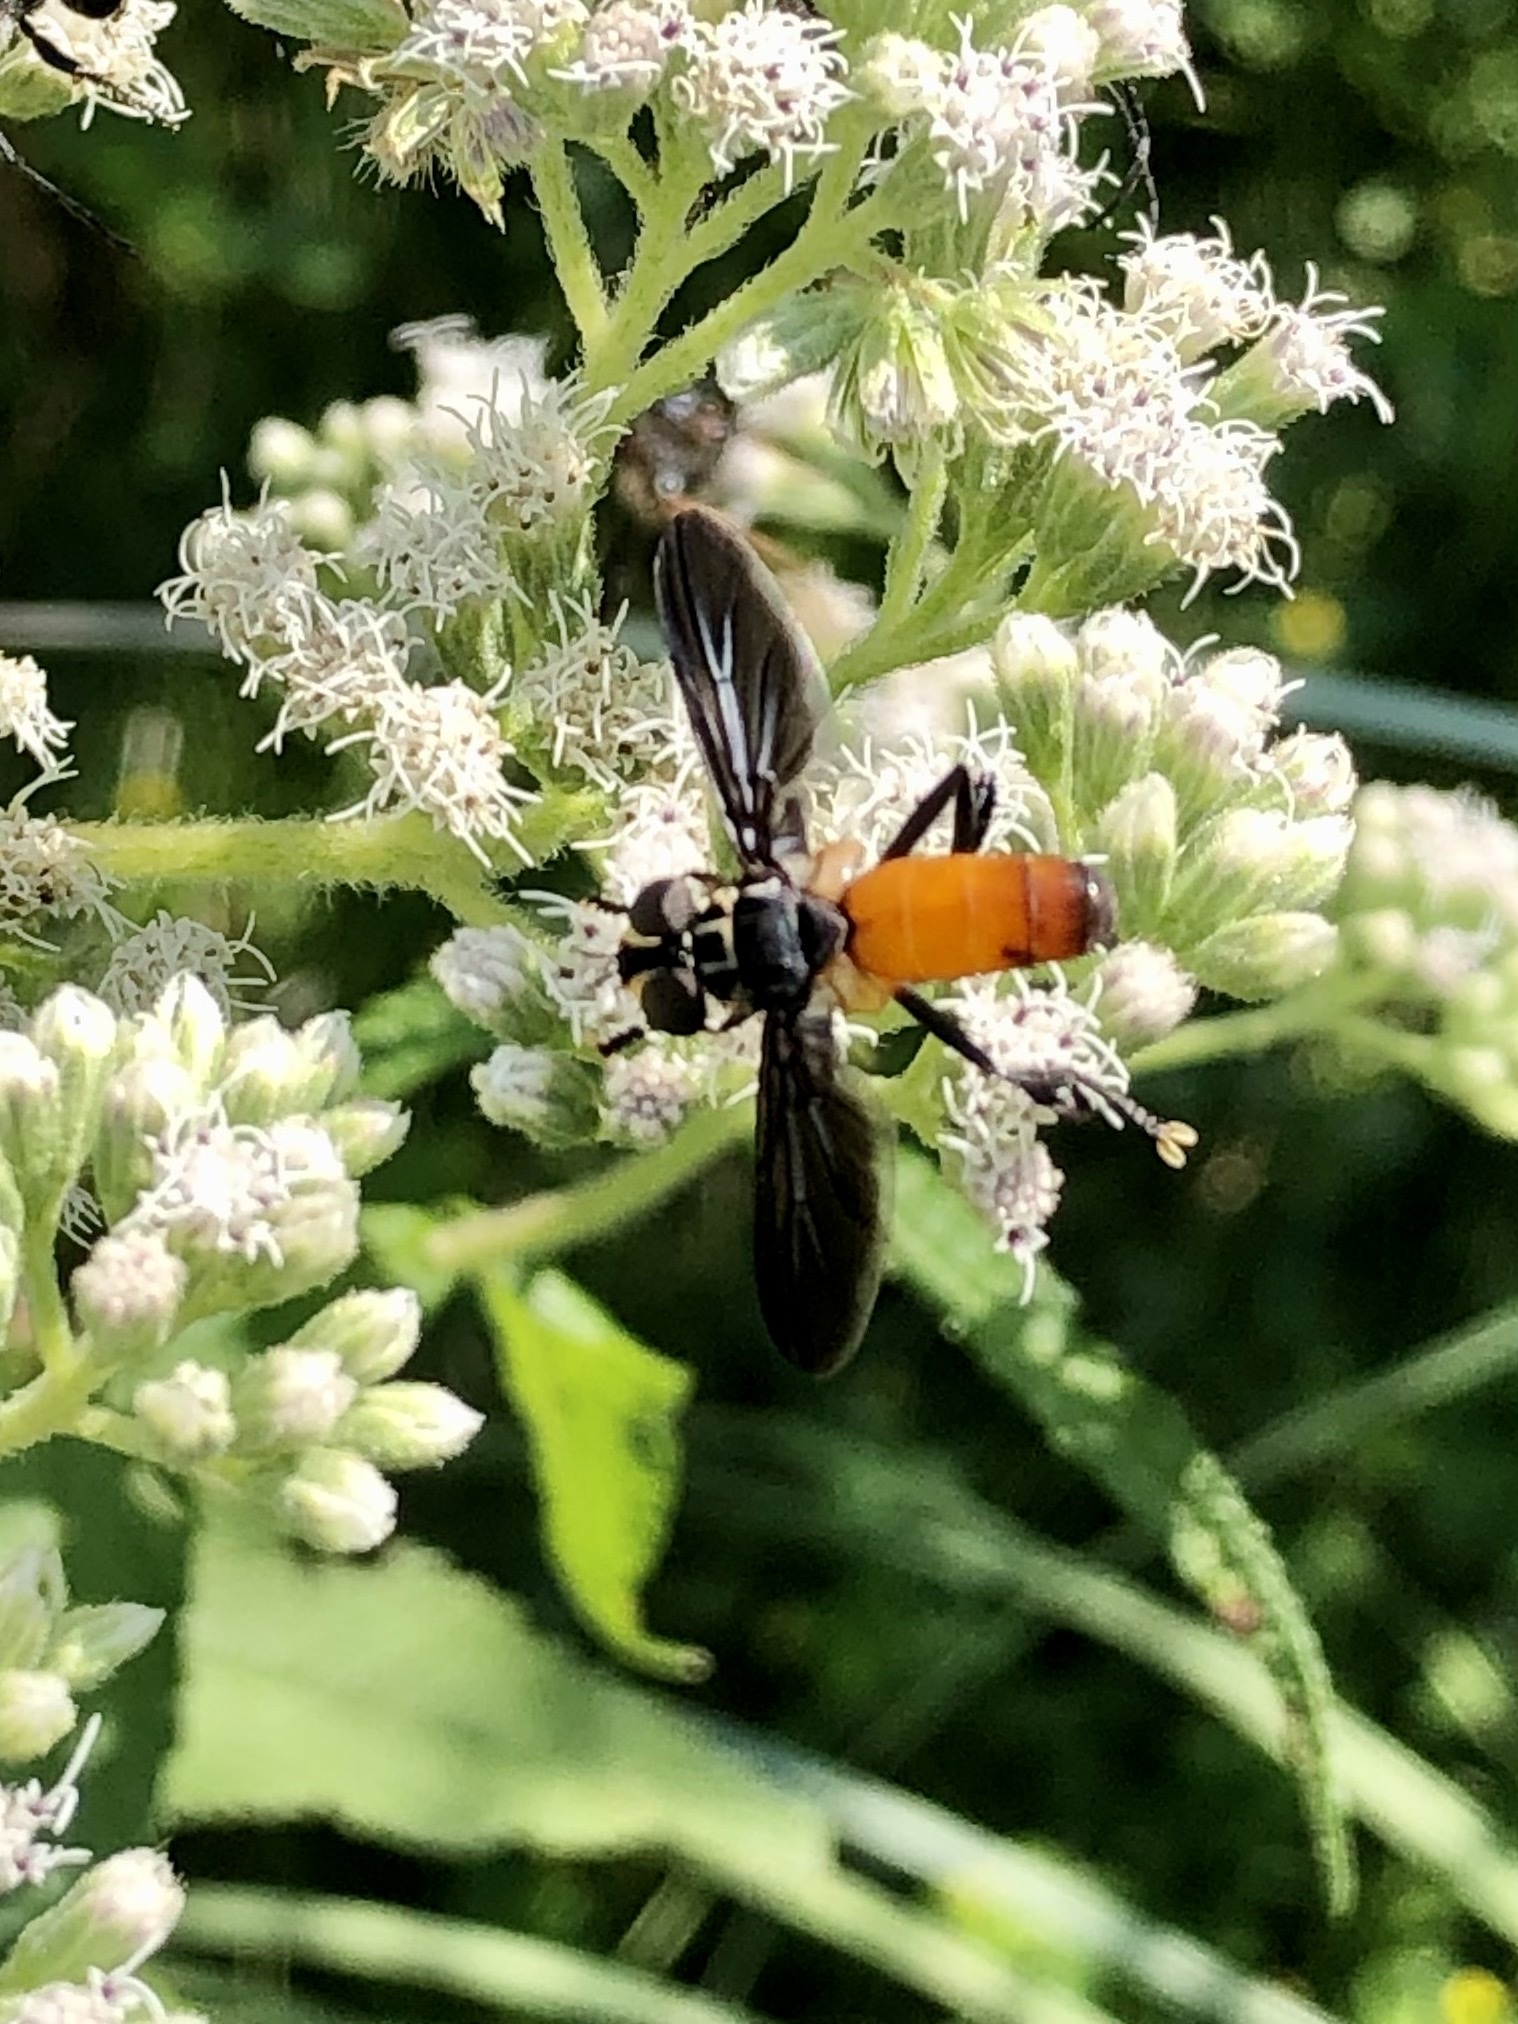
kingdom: Animalia
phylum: Arthropoda
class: Insecta
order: Diptera
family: Tachinidae
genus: Trichopoda
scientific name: Trichopoda pennipes
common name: Tachinid fly
